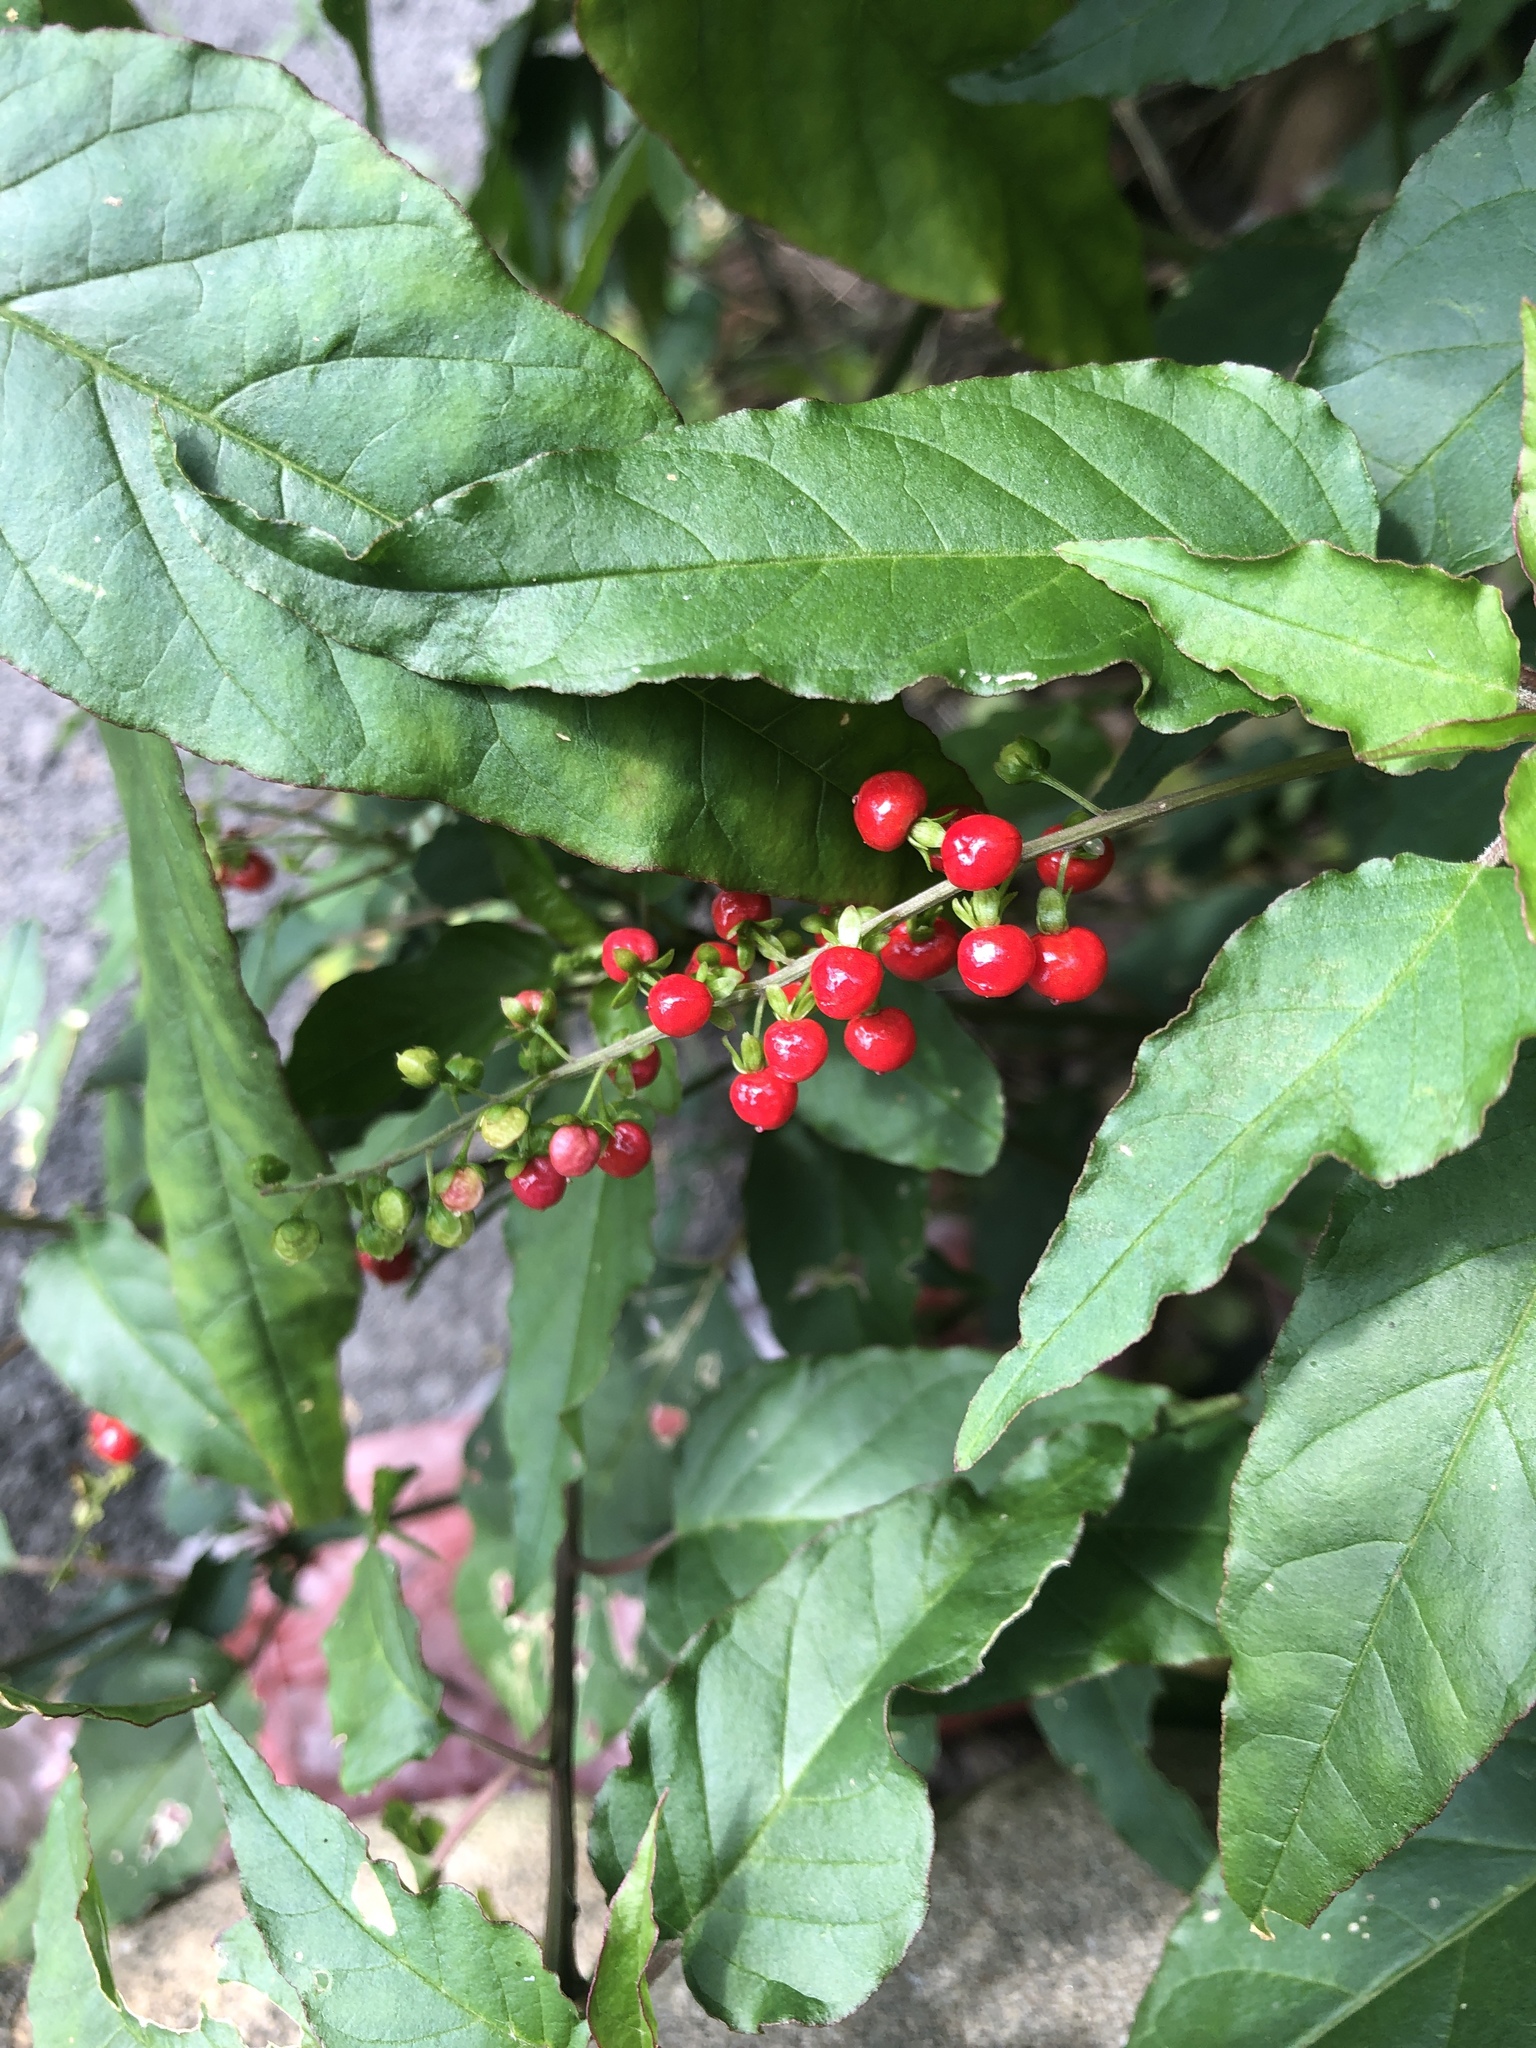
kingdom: Plantae
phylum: Tracheophyta
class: Magnoliopsida
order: Caryophyllales
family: Phytolaccaceae
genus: Rivina
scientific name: Rivina humilis
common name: Rougeplant
